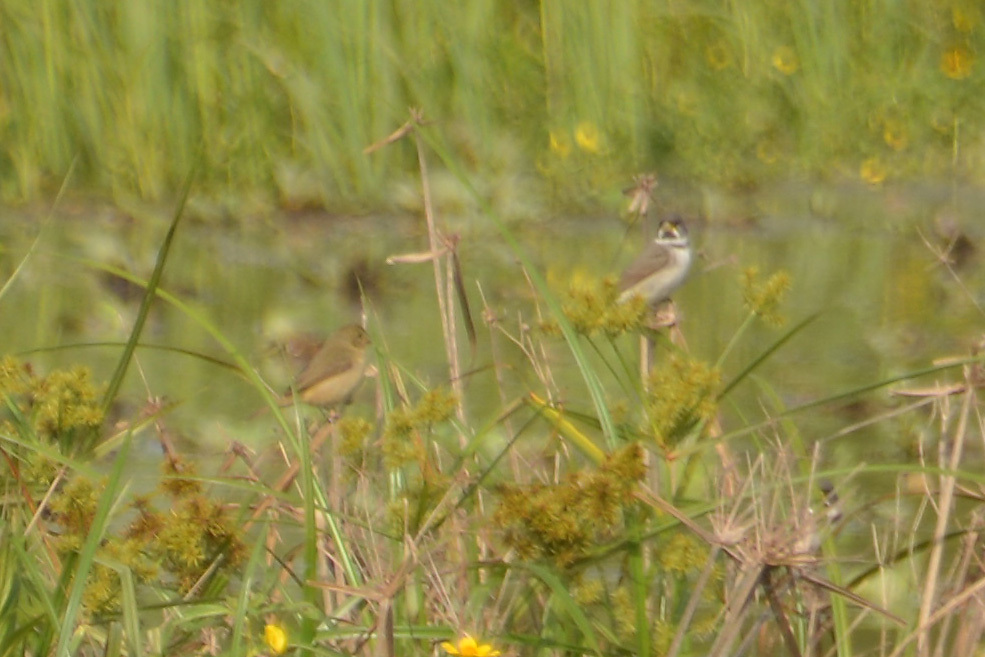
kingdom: Animalia
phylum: Chordata
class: Aves
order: Passeriformes
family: Thraupidae
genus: Sporophila
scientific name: Sporophila caerulescens
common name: Double-collared seedeater
